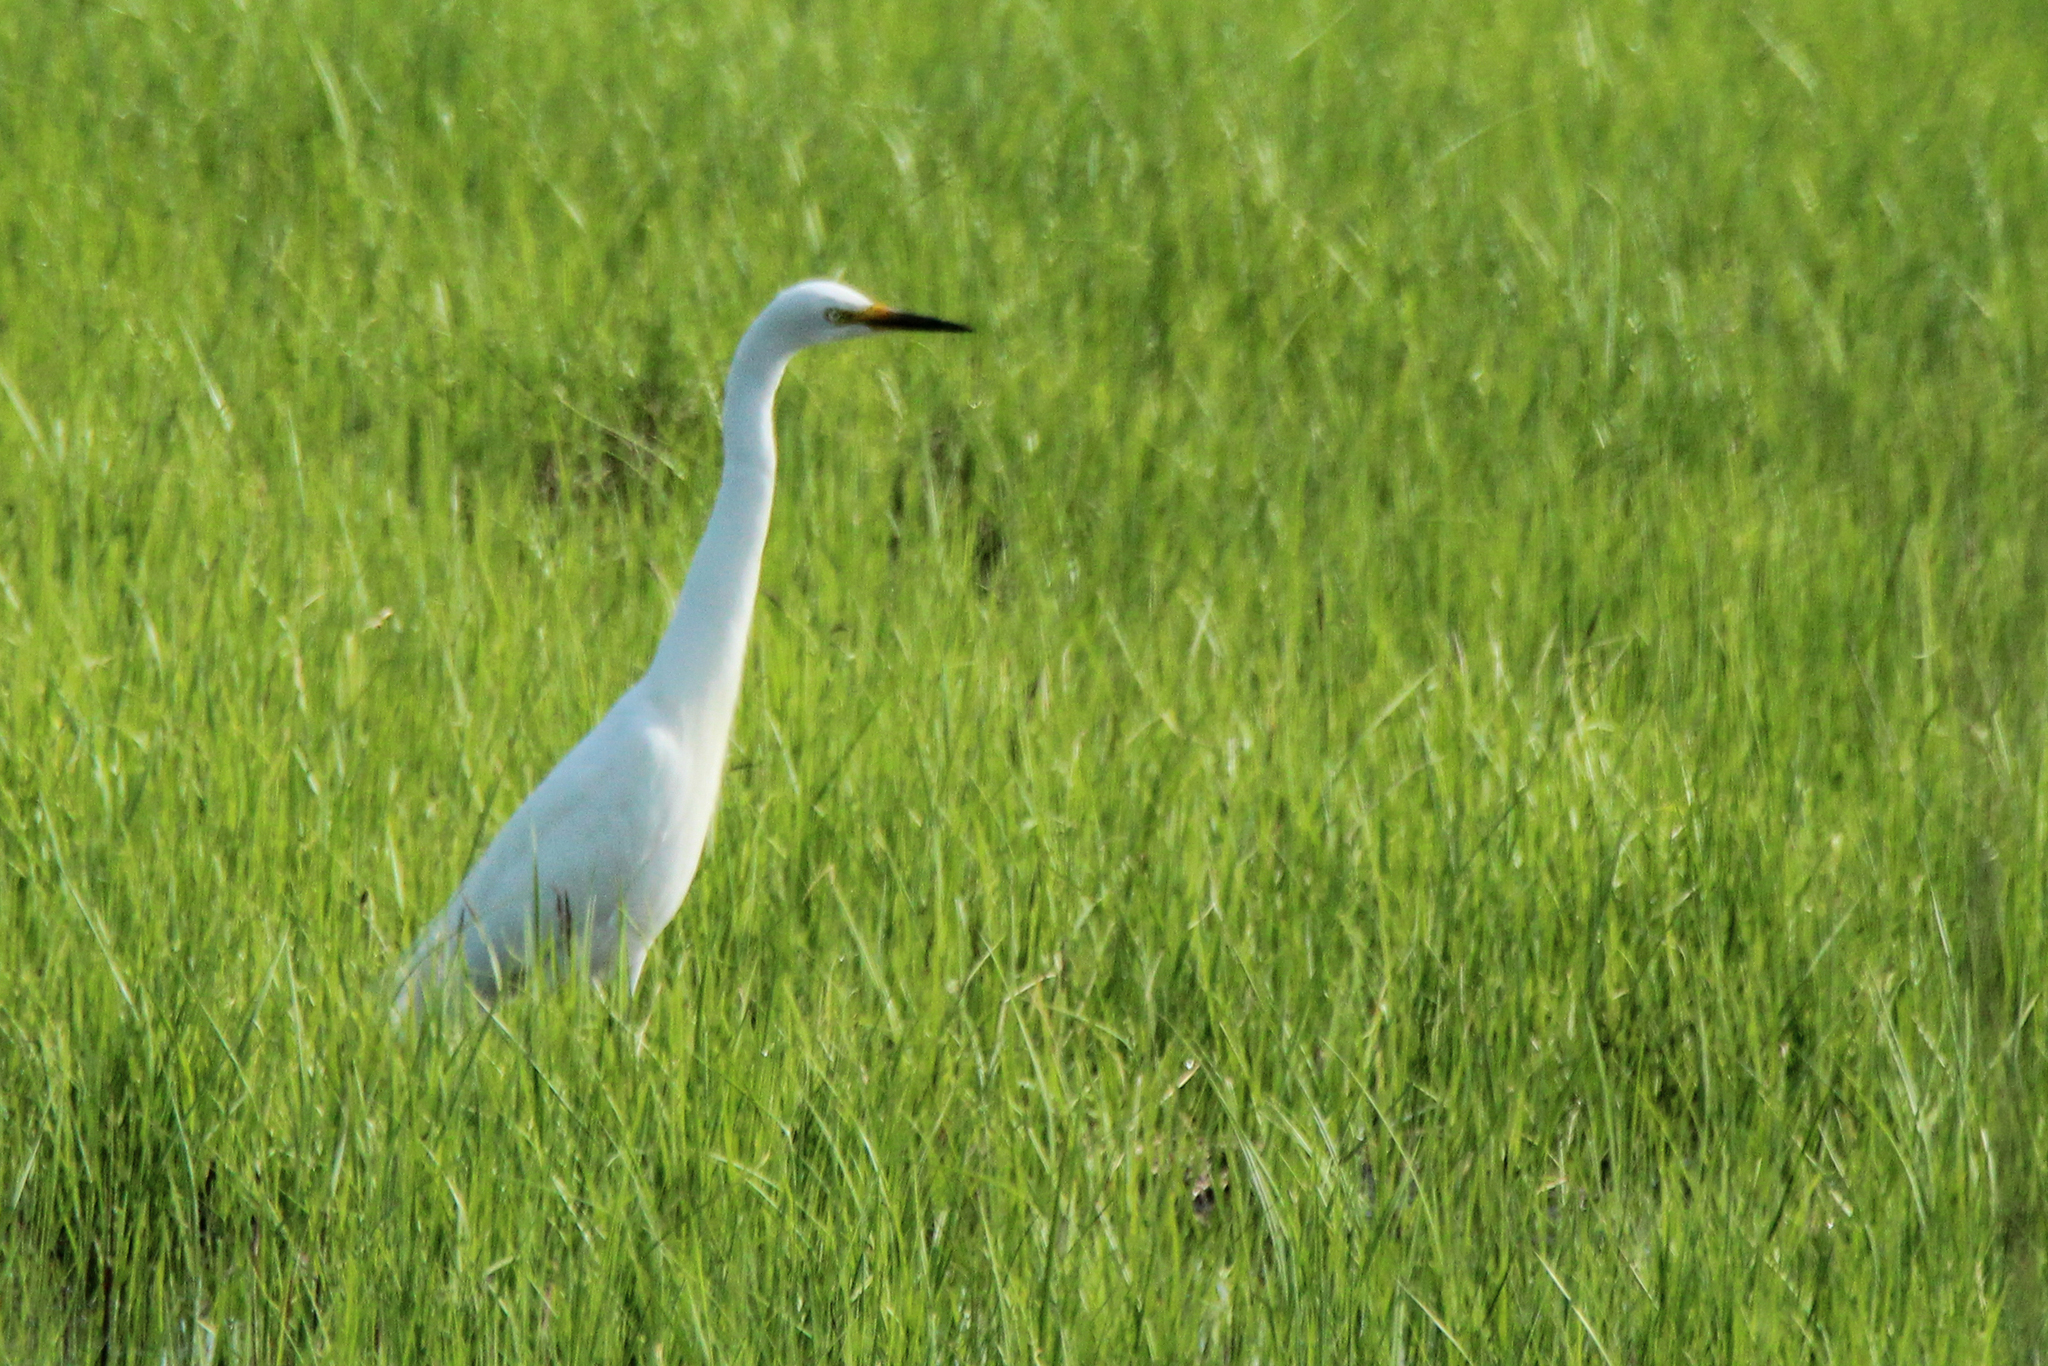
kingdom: Animalia
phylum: Chordata
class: Aves
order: Pelecaniformes
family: Ardeidae
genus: Egretta
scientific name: Egretta intermedia
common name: Intermediate egret
